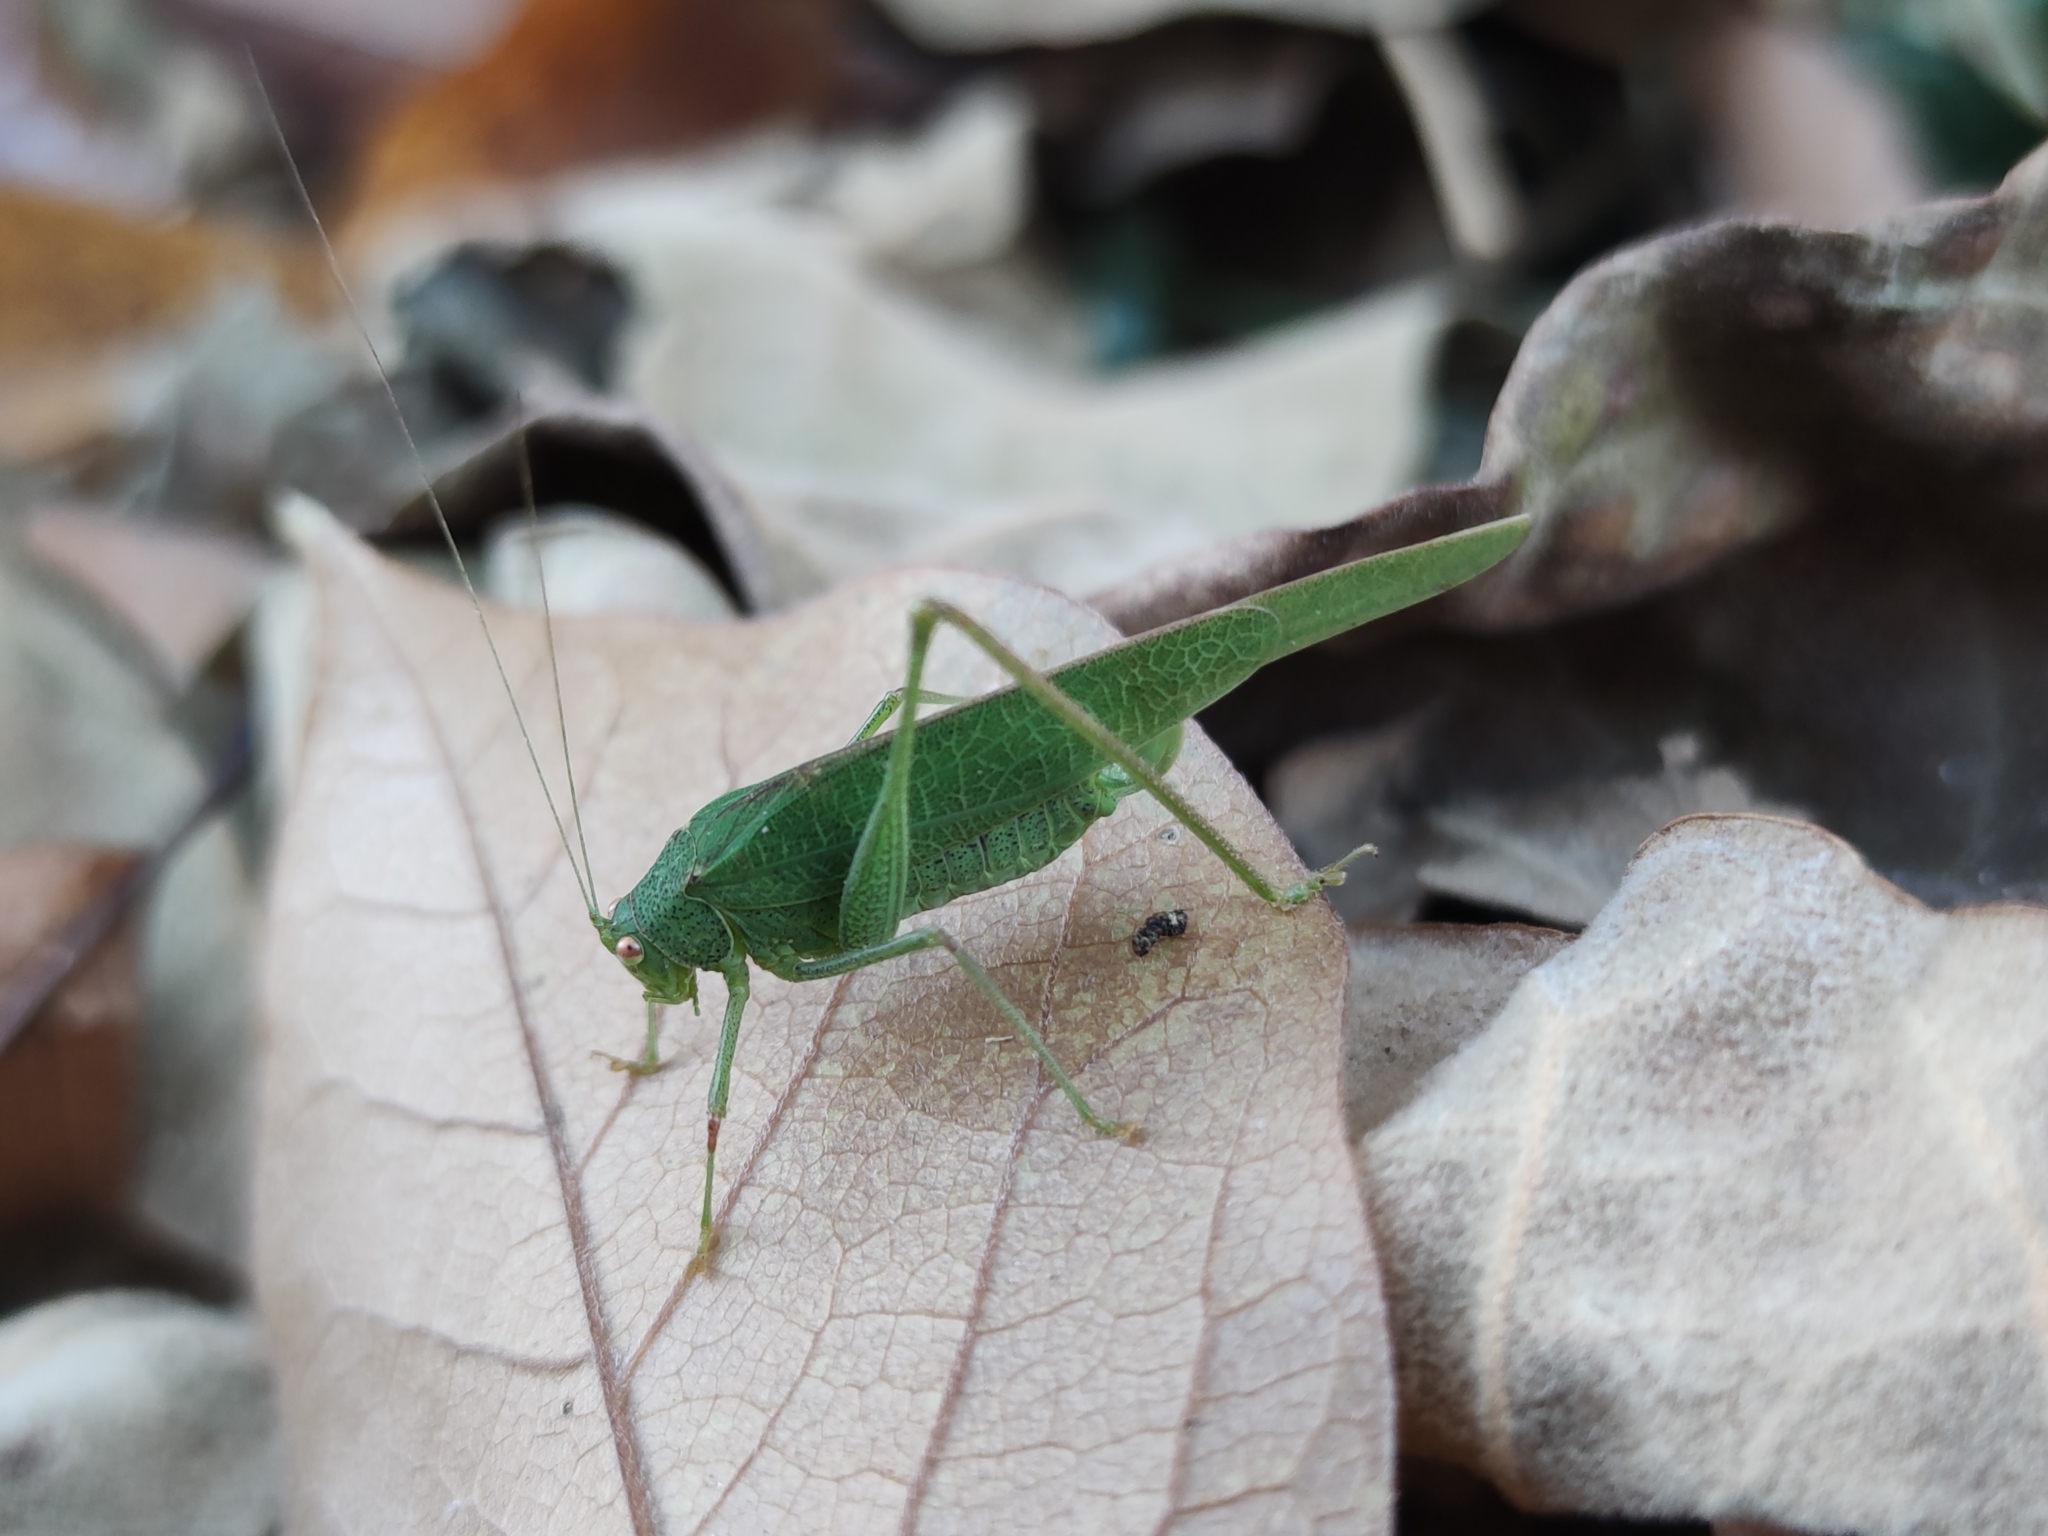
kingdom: Animalia
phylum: Arthropoda
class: Insecta
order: Orthoptera
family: Tettigoniidae
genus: Phaneroptera
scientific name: Phaneroptera nana
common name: Southern sickle bush-cricket
